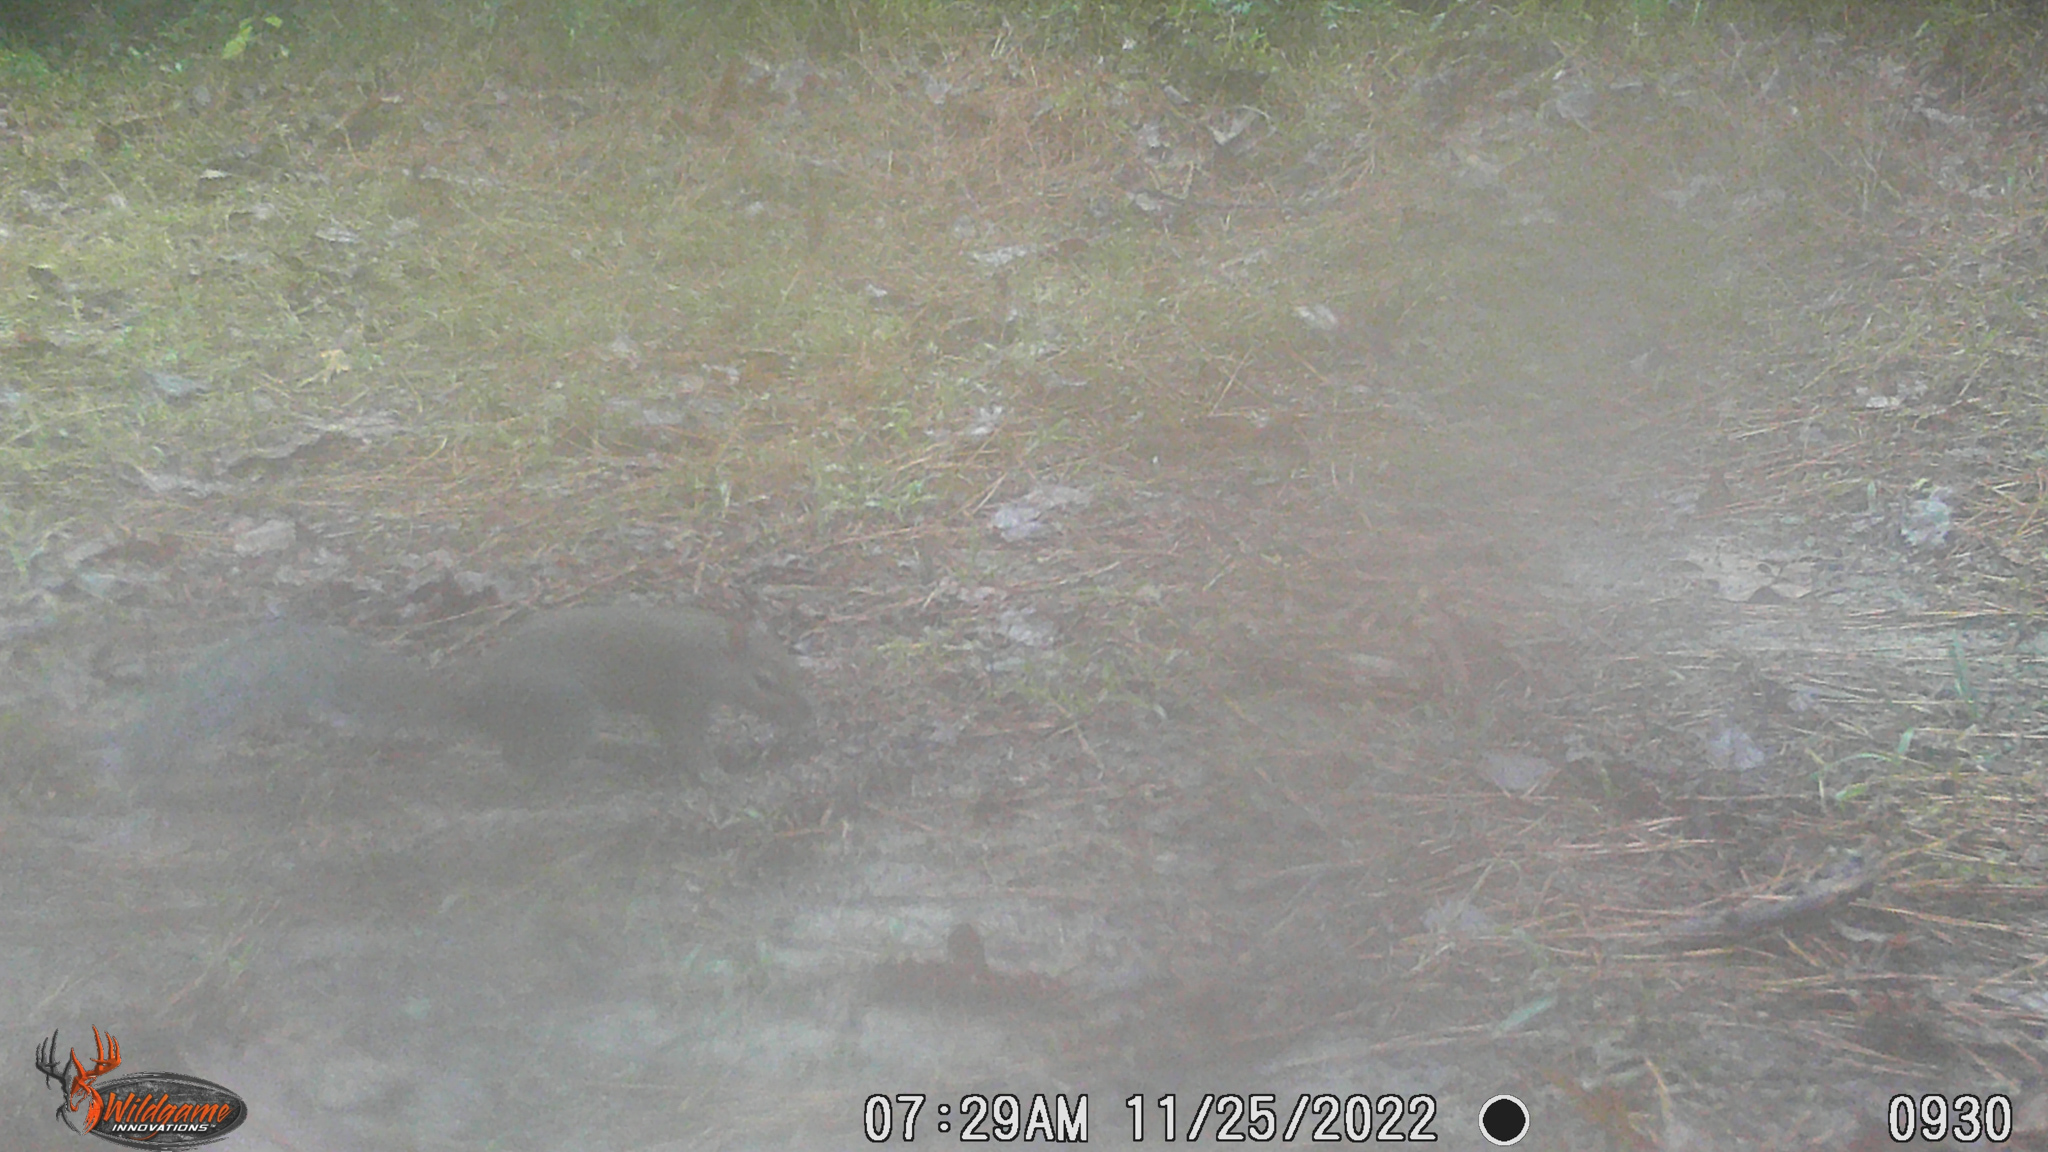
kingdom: Animalia
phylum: Chordata
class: Mammalia
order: Rodentia
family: Sciuridae
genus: Sciurus
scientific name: Sciurus carolinensis
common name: Eastern gray squirrel
